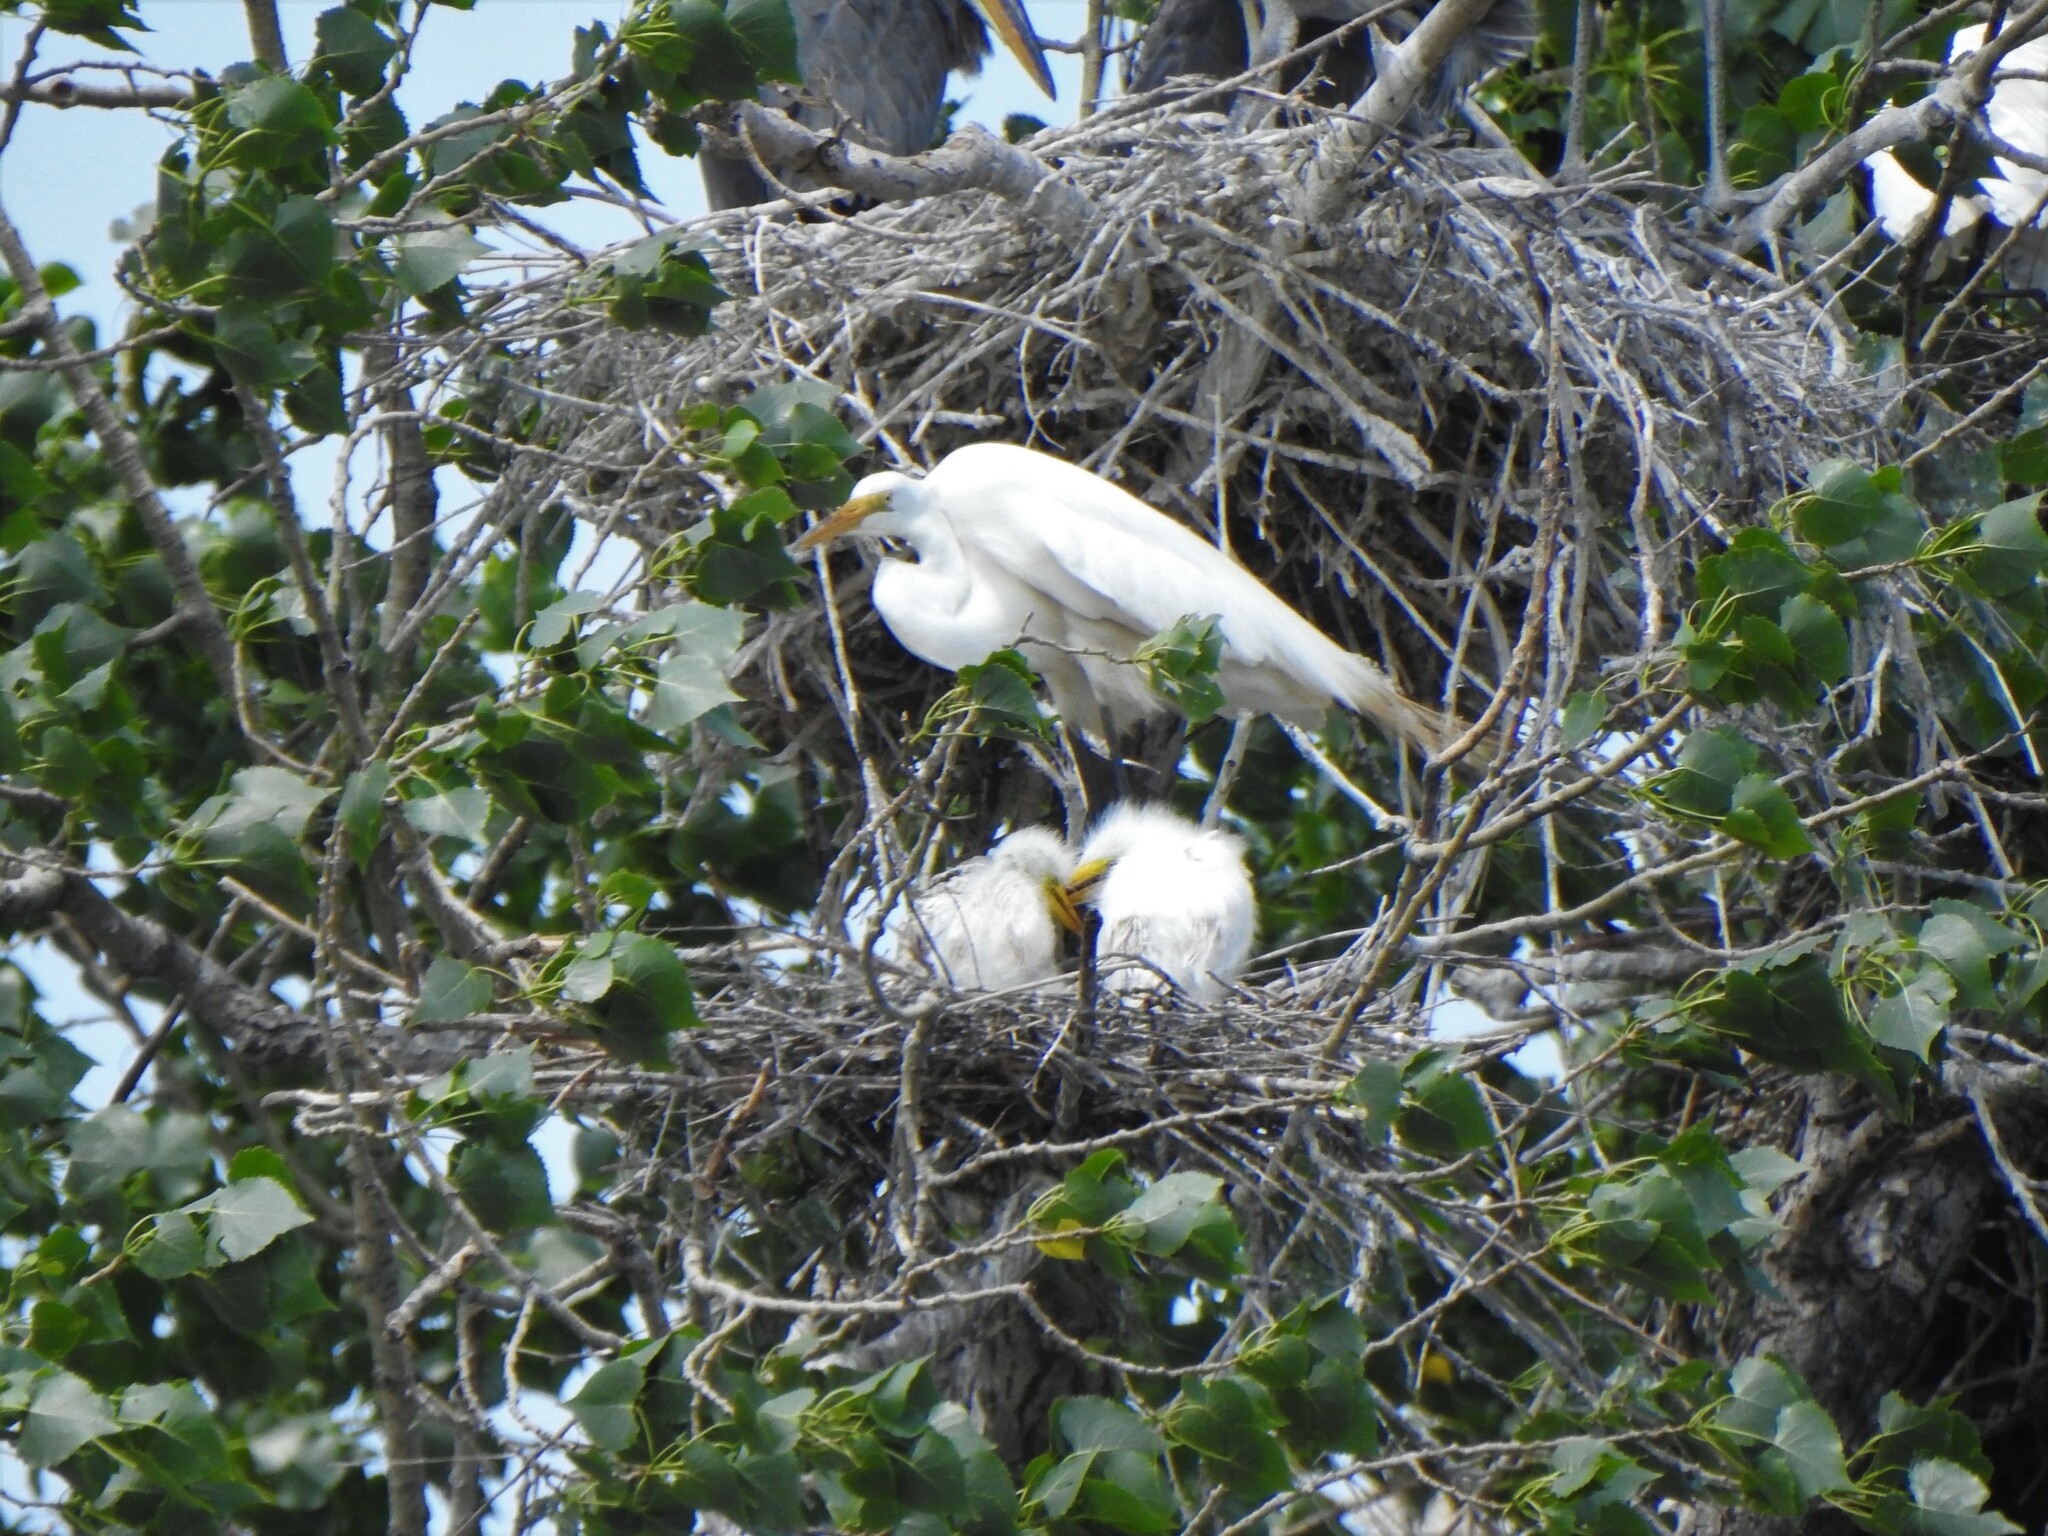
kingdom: Animalia
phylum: Chordata
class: Aves
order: Pelecaniformes
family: Ardeidae
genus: Ardea
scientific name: Ardea alba
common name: Great egret
